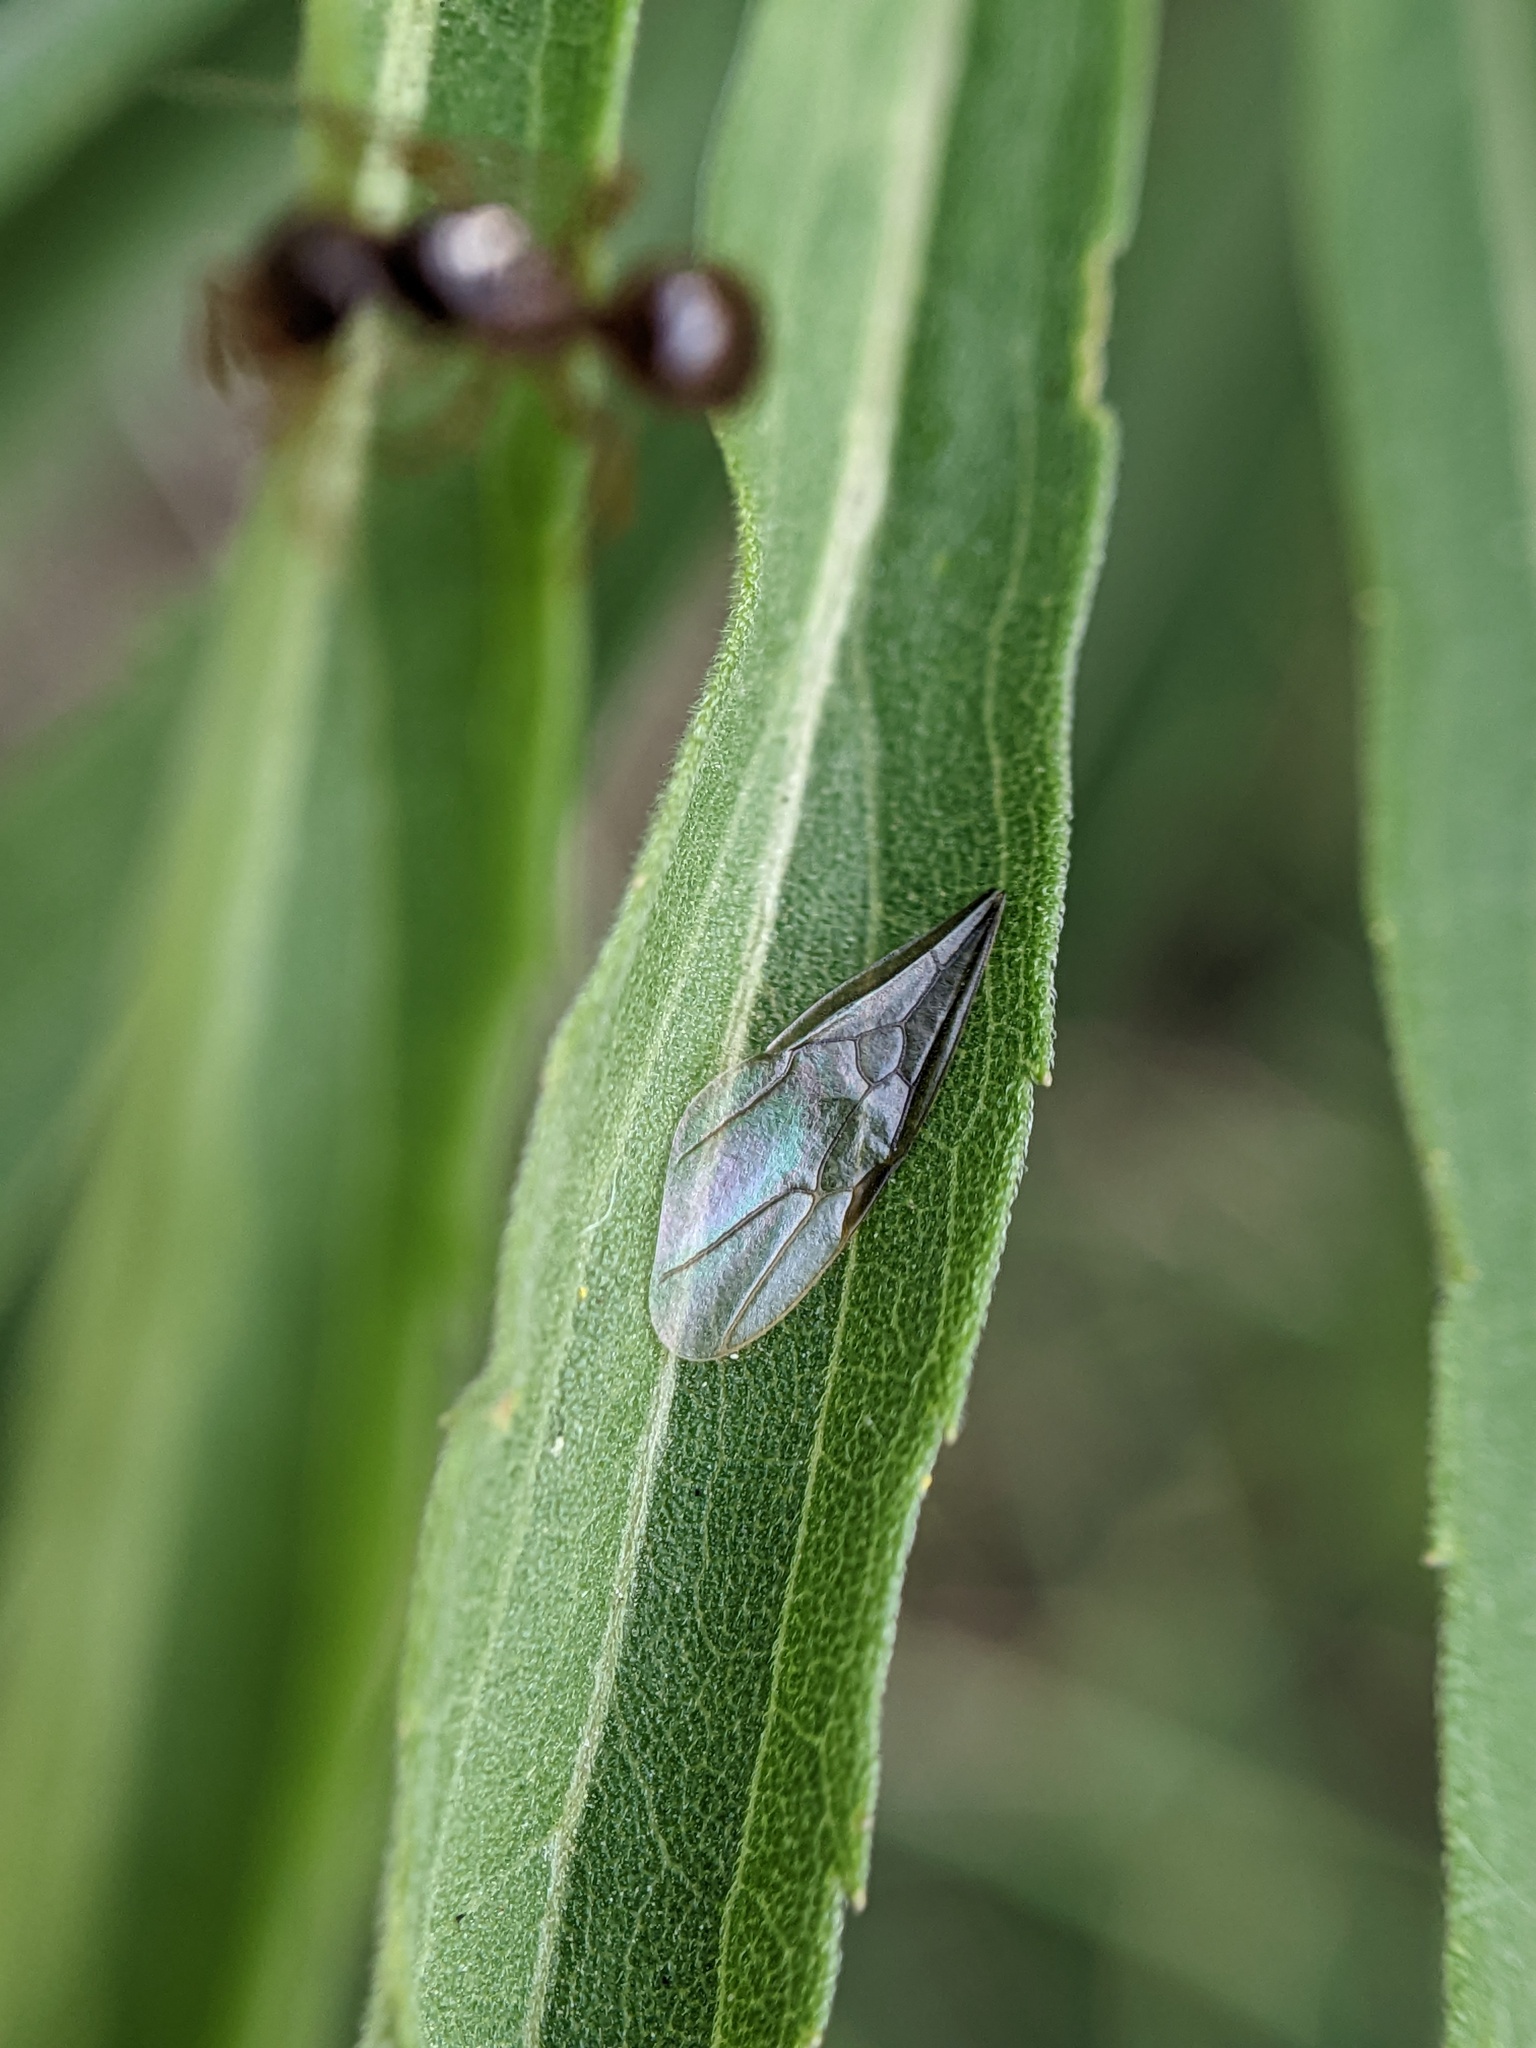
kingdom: Animalia
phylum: Arthropoda
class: Insecta
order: Hymenoptera
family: Formicidae
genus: Lasius
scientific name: Lasius claviger
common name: Common citronella ant
